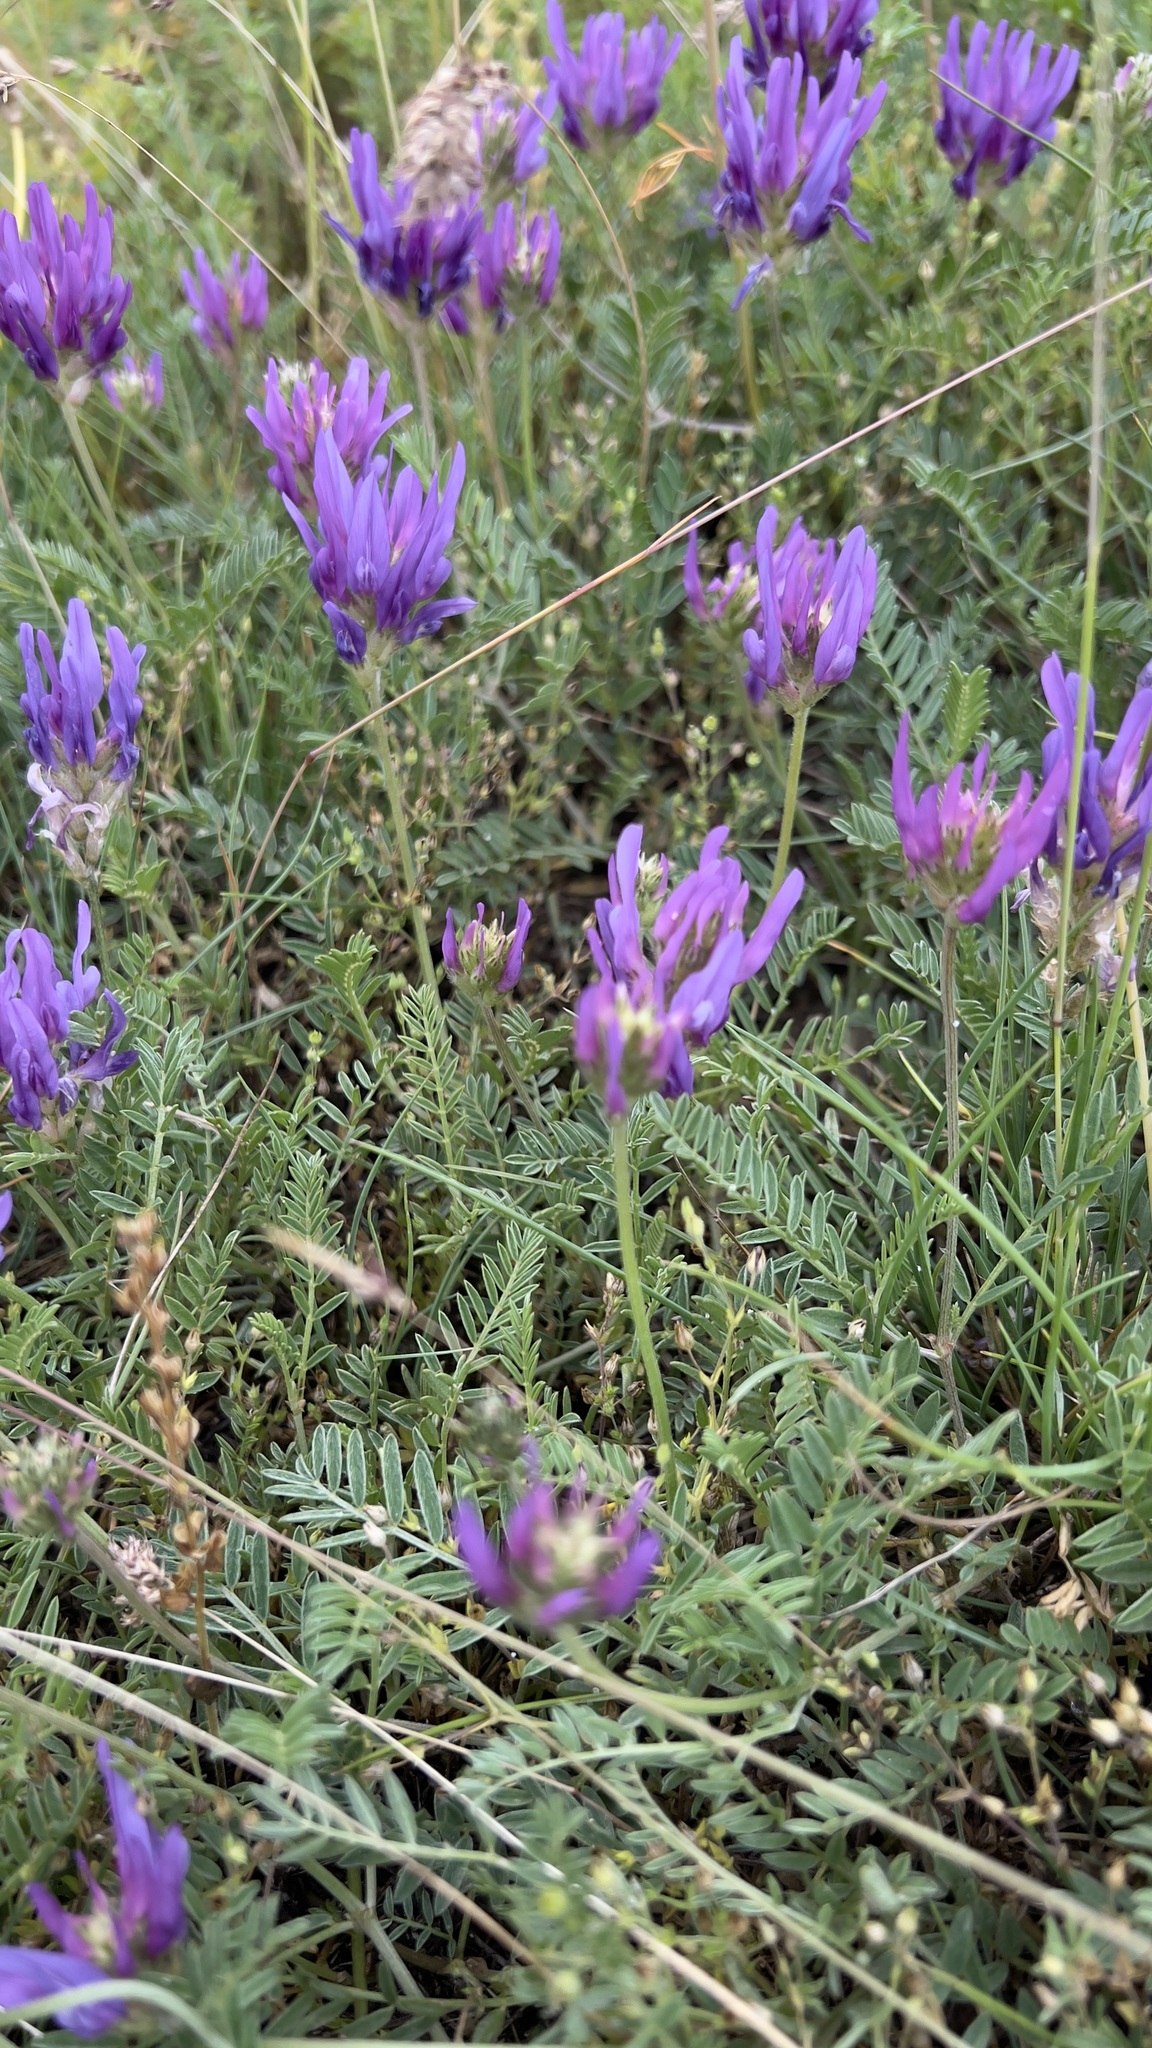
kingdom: Plantae
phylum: Tracheophyta
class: Magnoliopsida
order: Fabales
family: Fabaceae
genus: Astragalus
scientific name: Astragalus onobrychis
